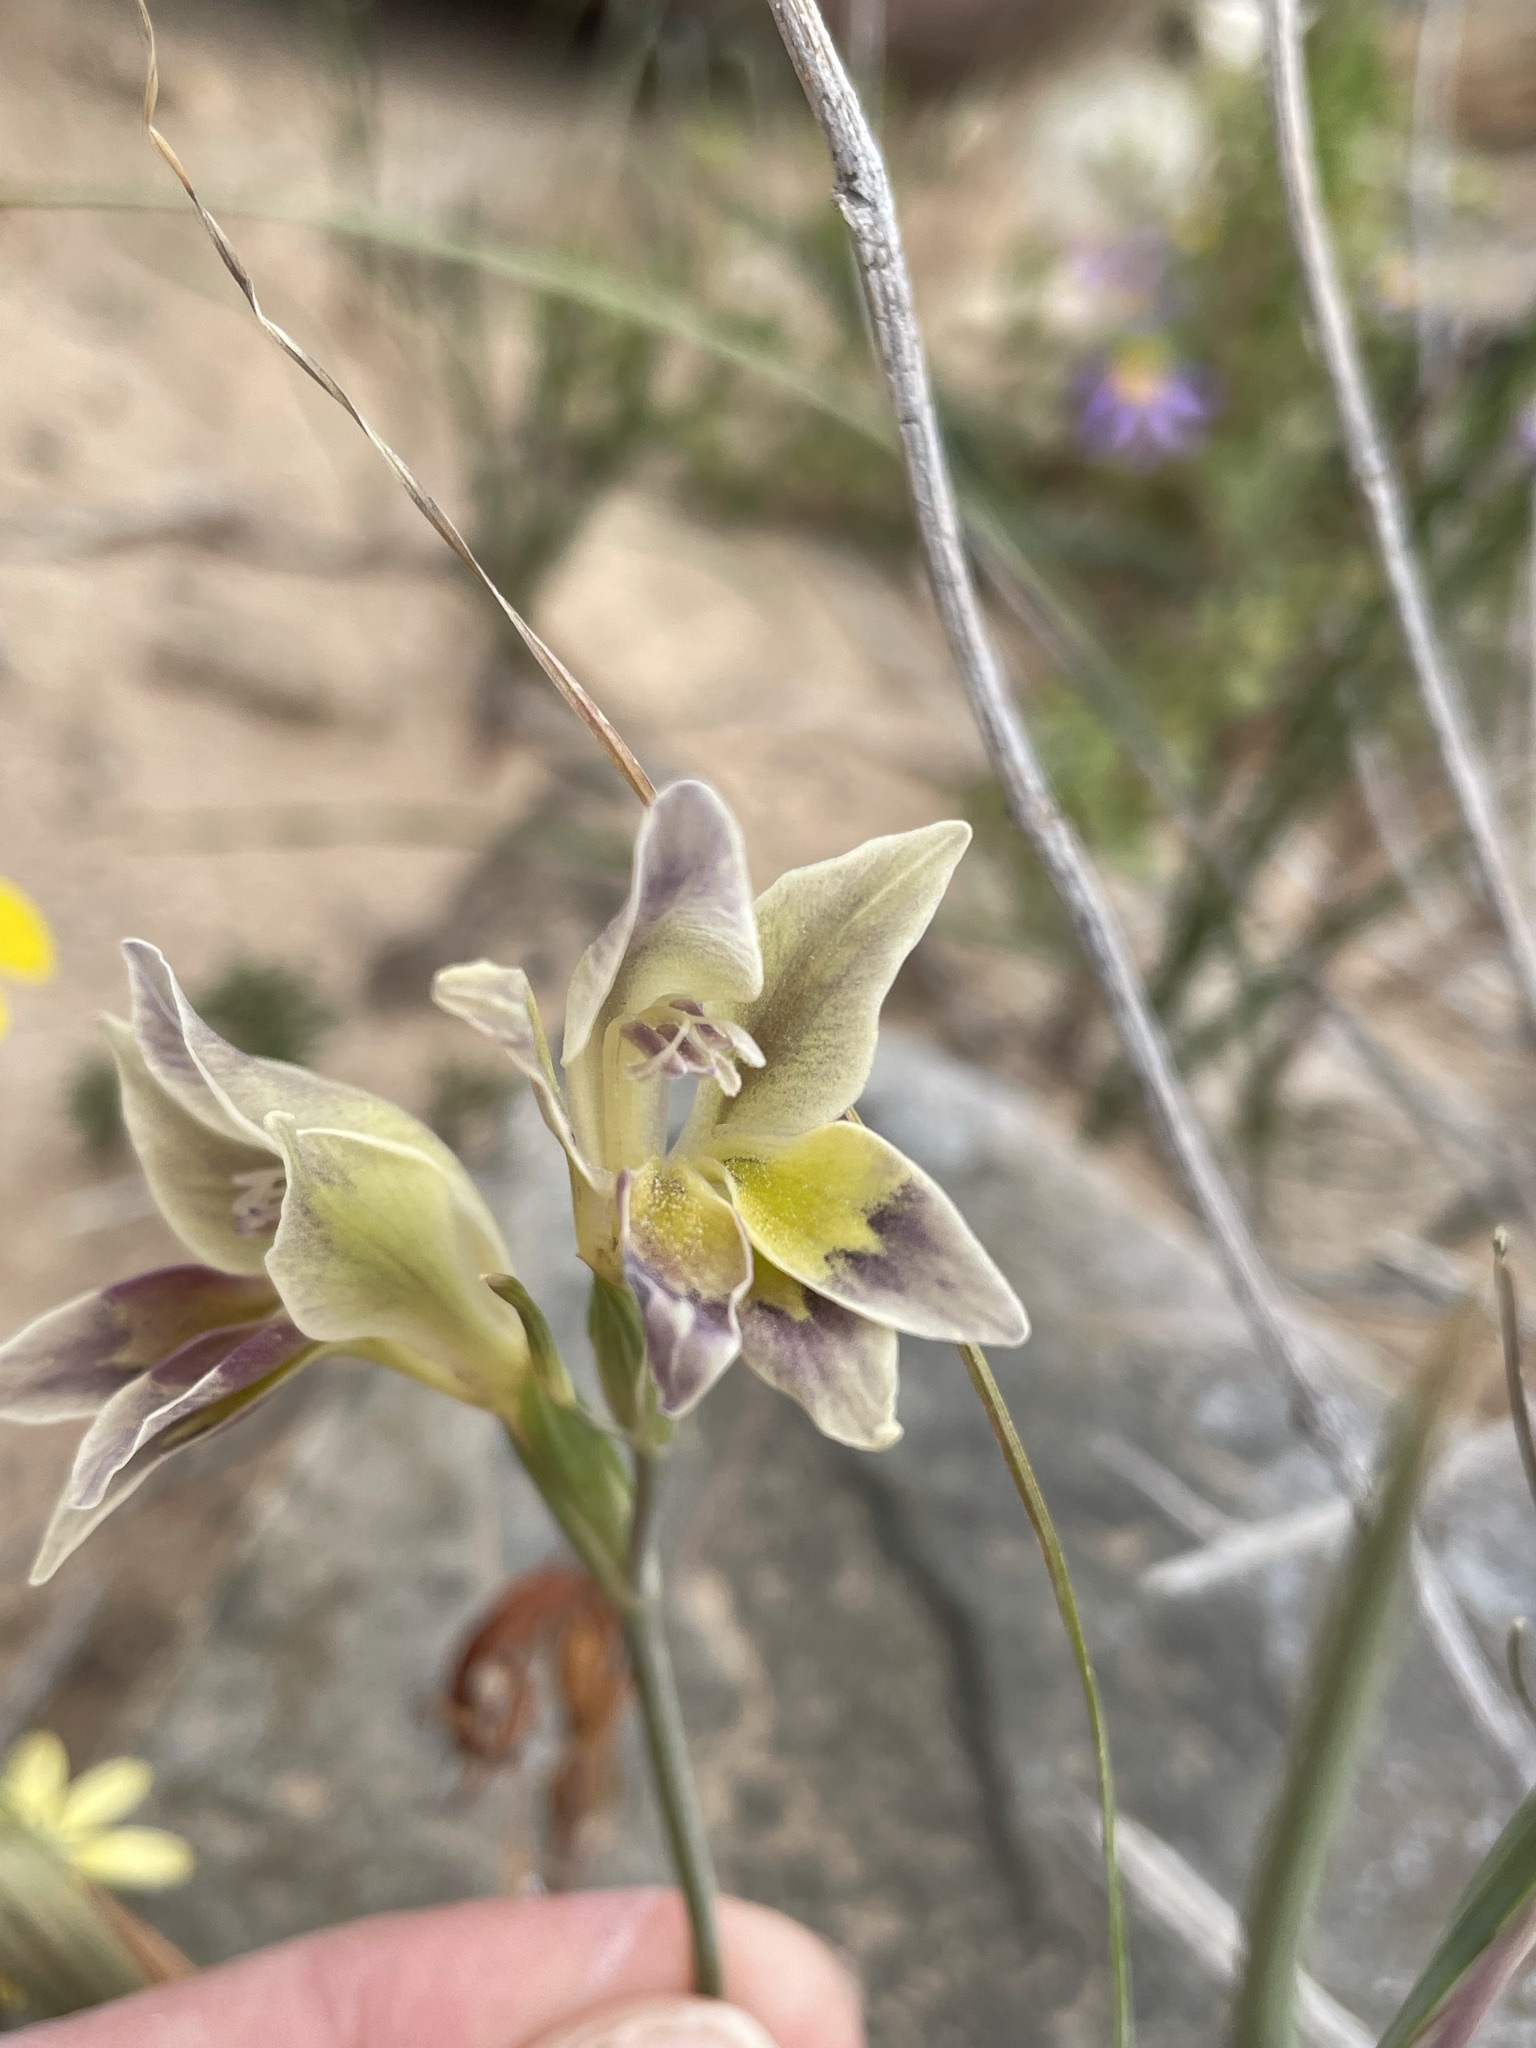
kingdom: Plantae
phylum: Tracheophyta
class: Liliopsida
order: Asparagales
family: Iridaceae
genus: Gladiolus
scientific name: Gladiolus scullyi
